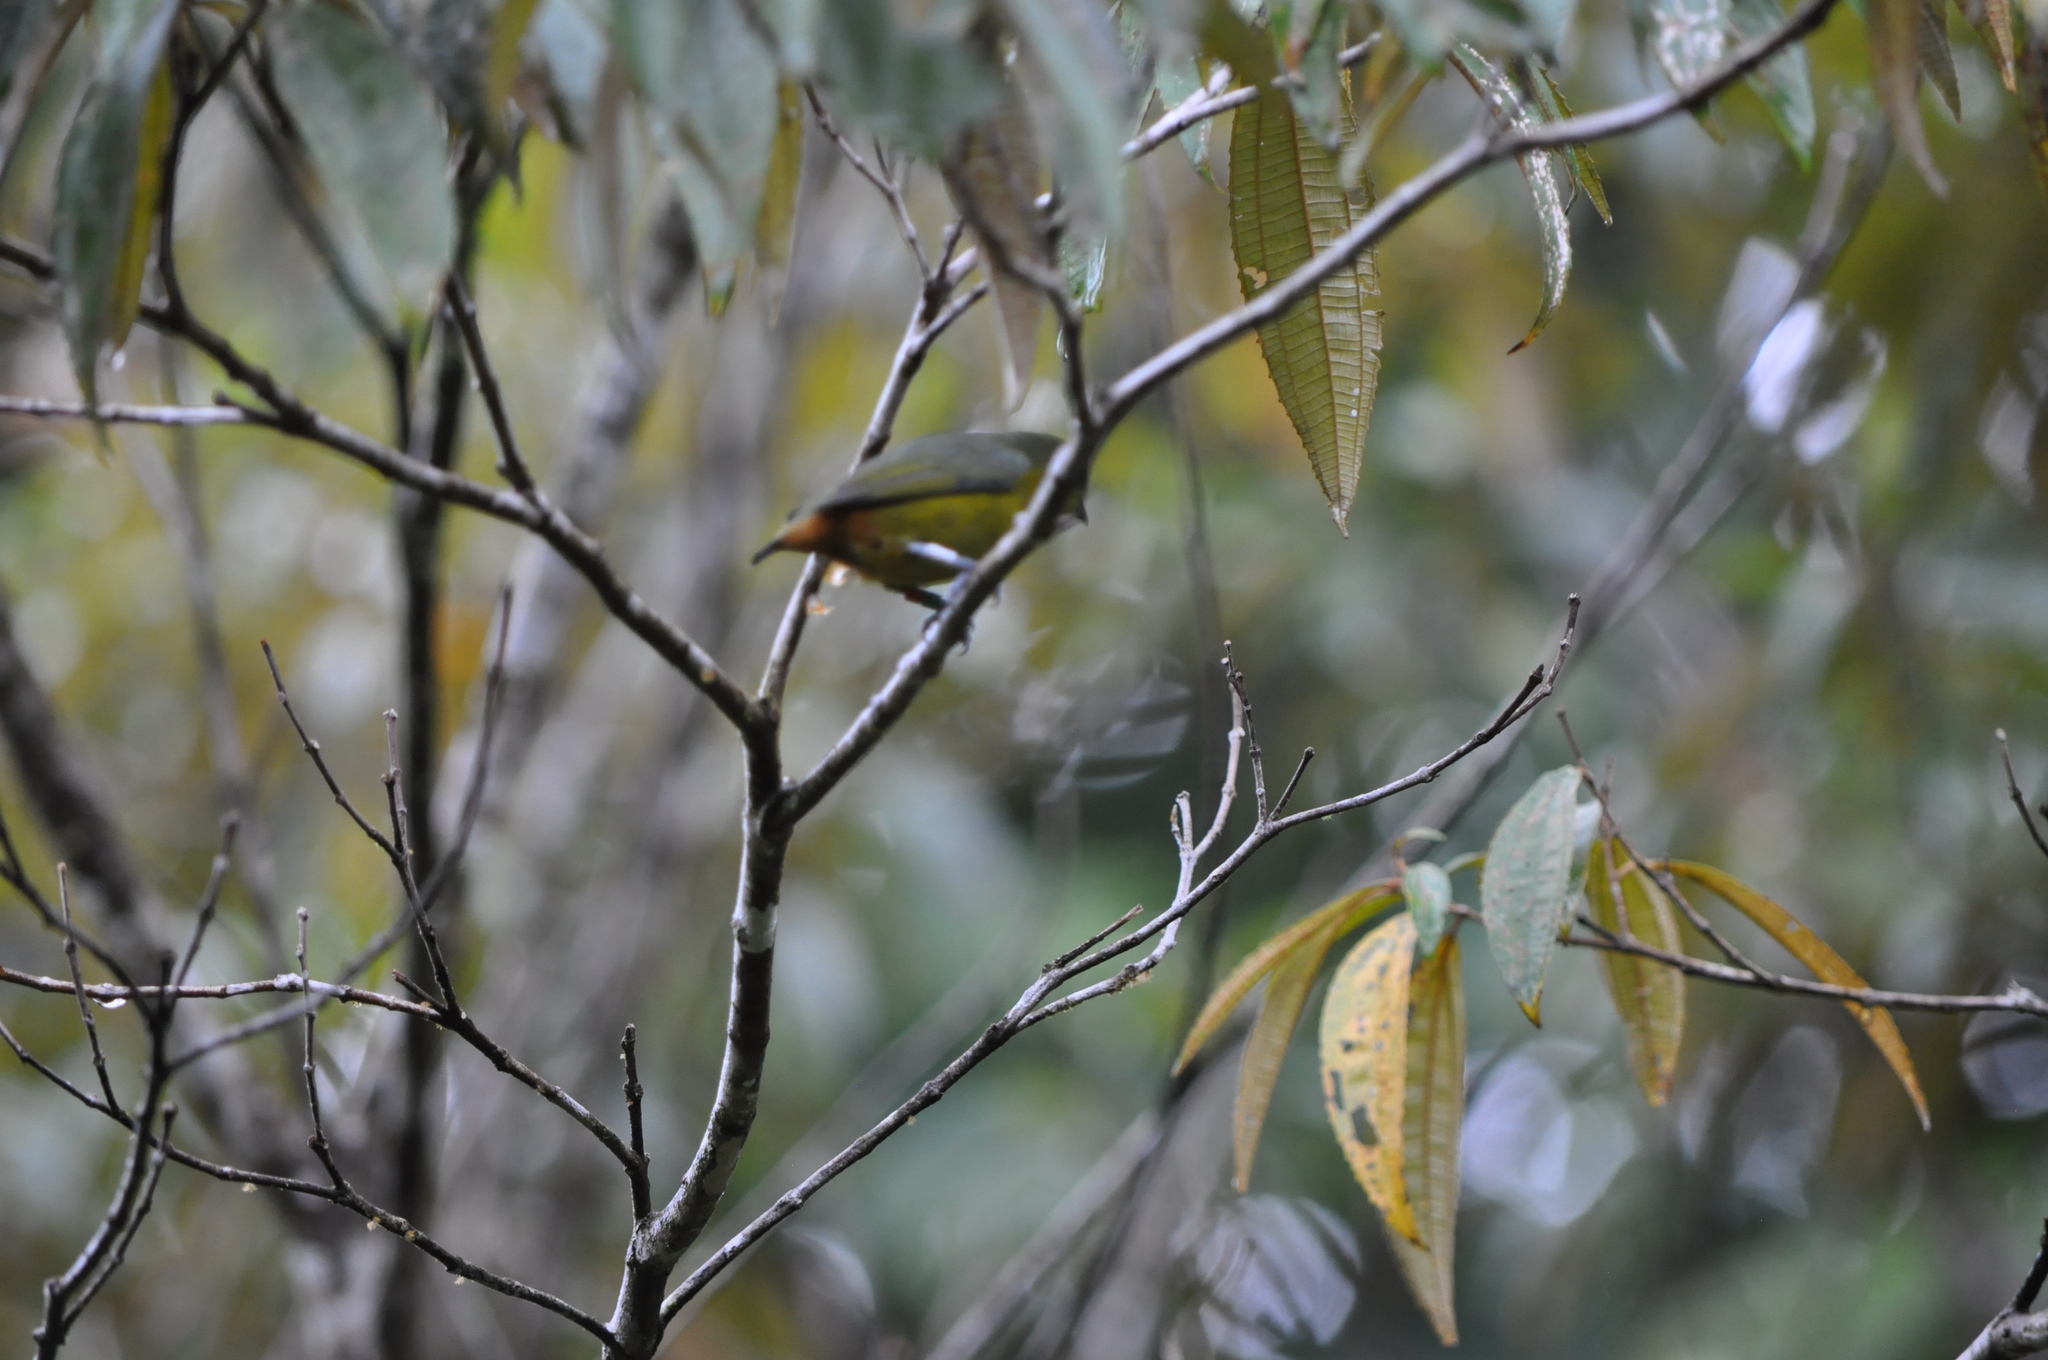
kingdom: Animalia
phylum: Chordata
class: Aves
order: Passeriformes
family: Fringillidae
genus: Euphonia
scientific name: Euphonia gouldi
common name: Olive-backed euphonia
